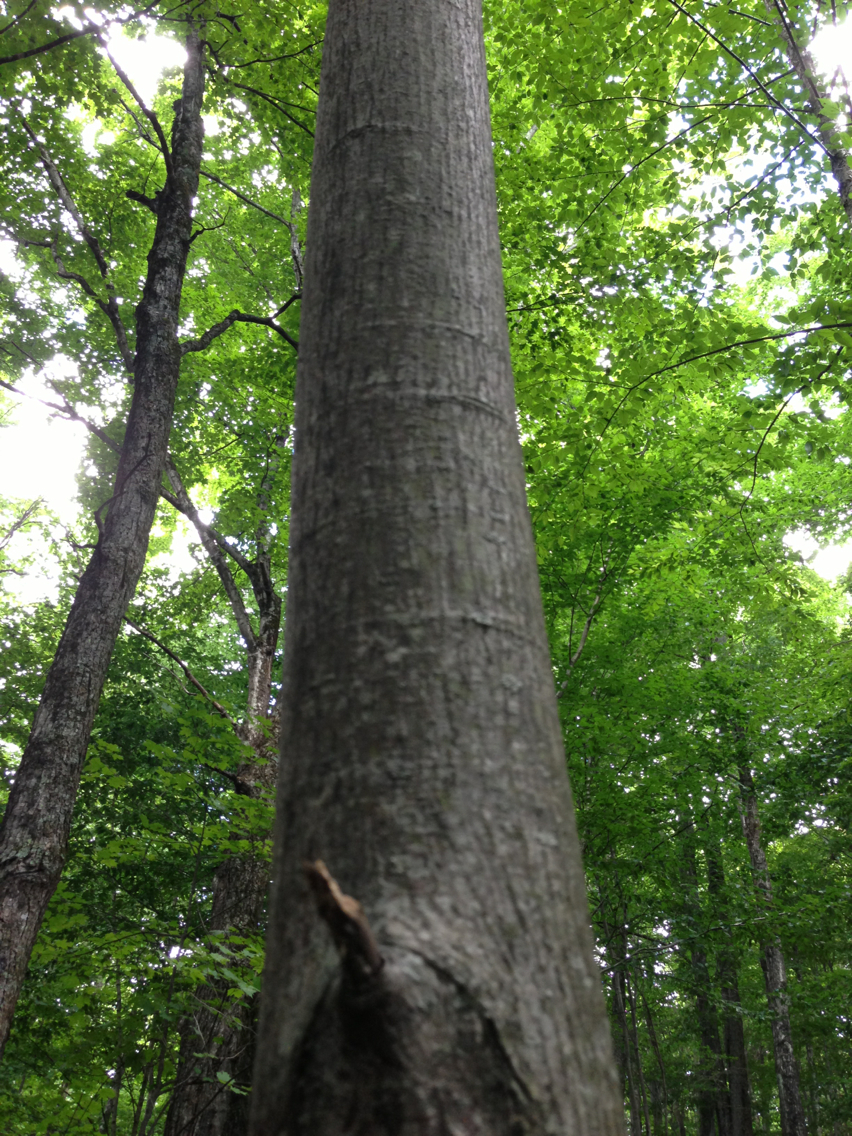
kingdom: Plantae
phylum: Tracheophyta
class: Magnoliopsida
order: Sapindales
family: Sapindaceae
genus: Acer
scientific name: Acer pensylvanicum
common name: Moosewood
